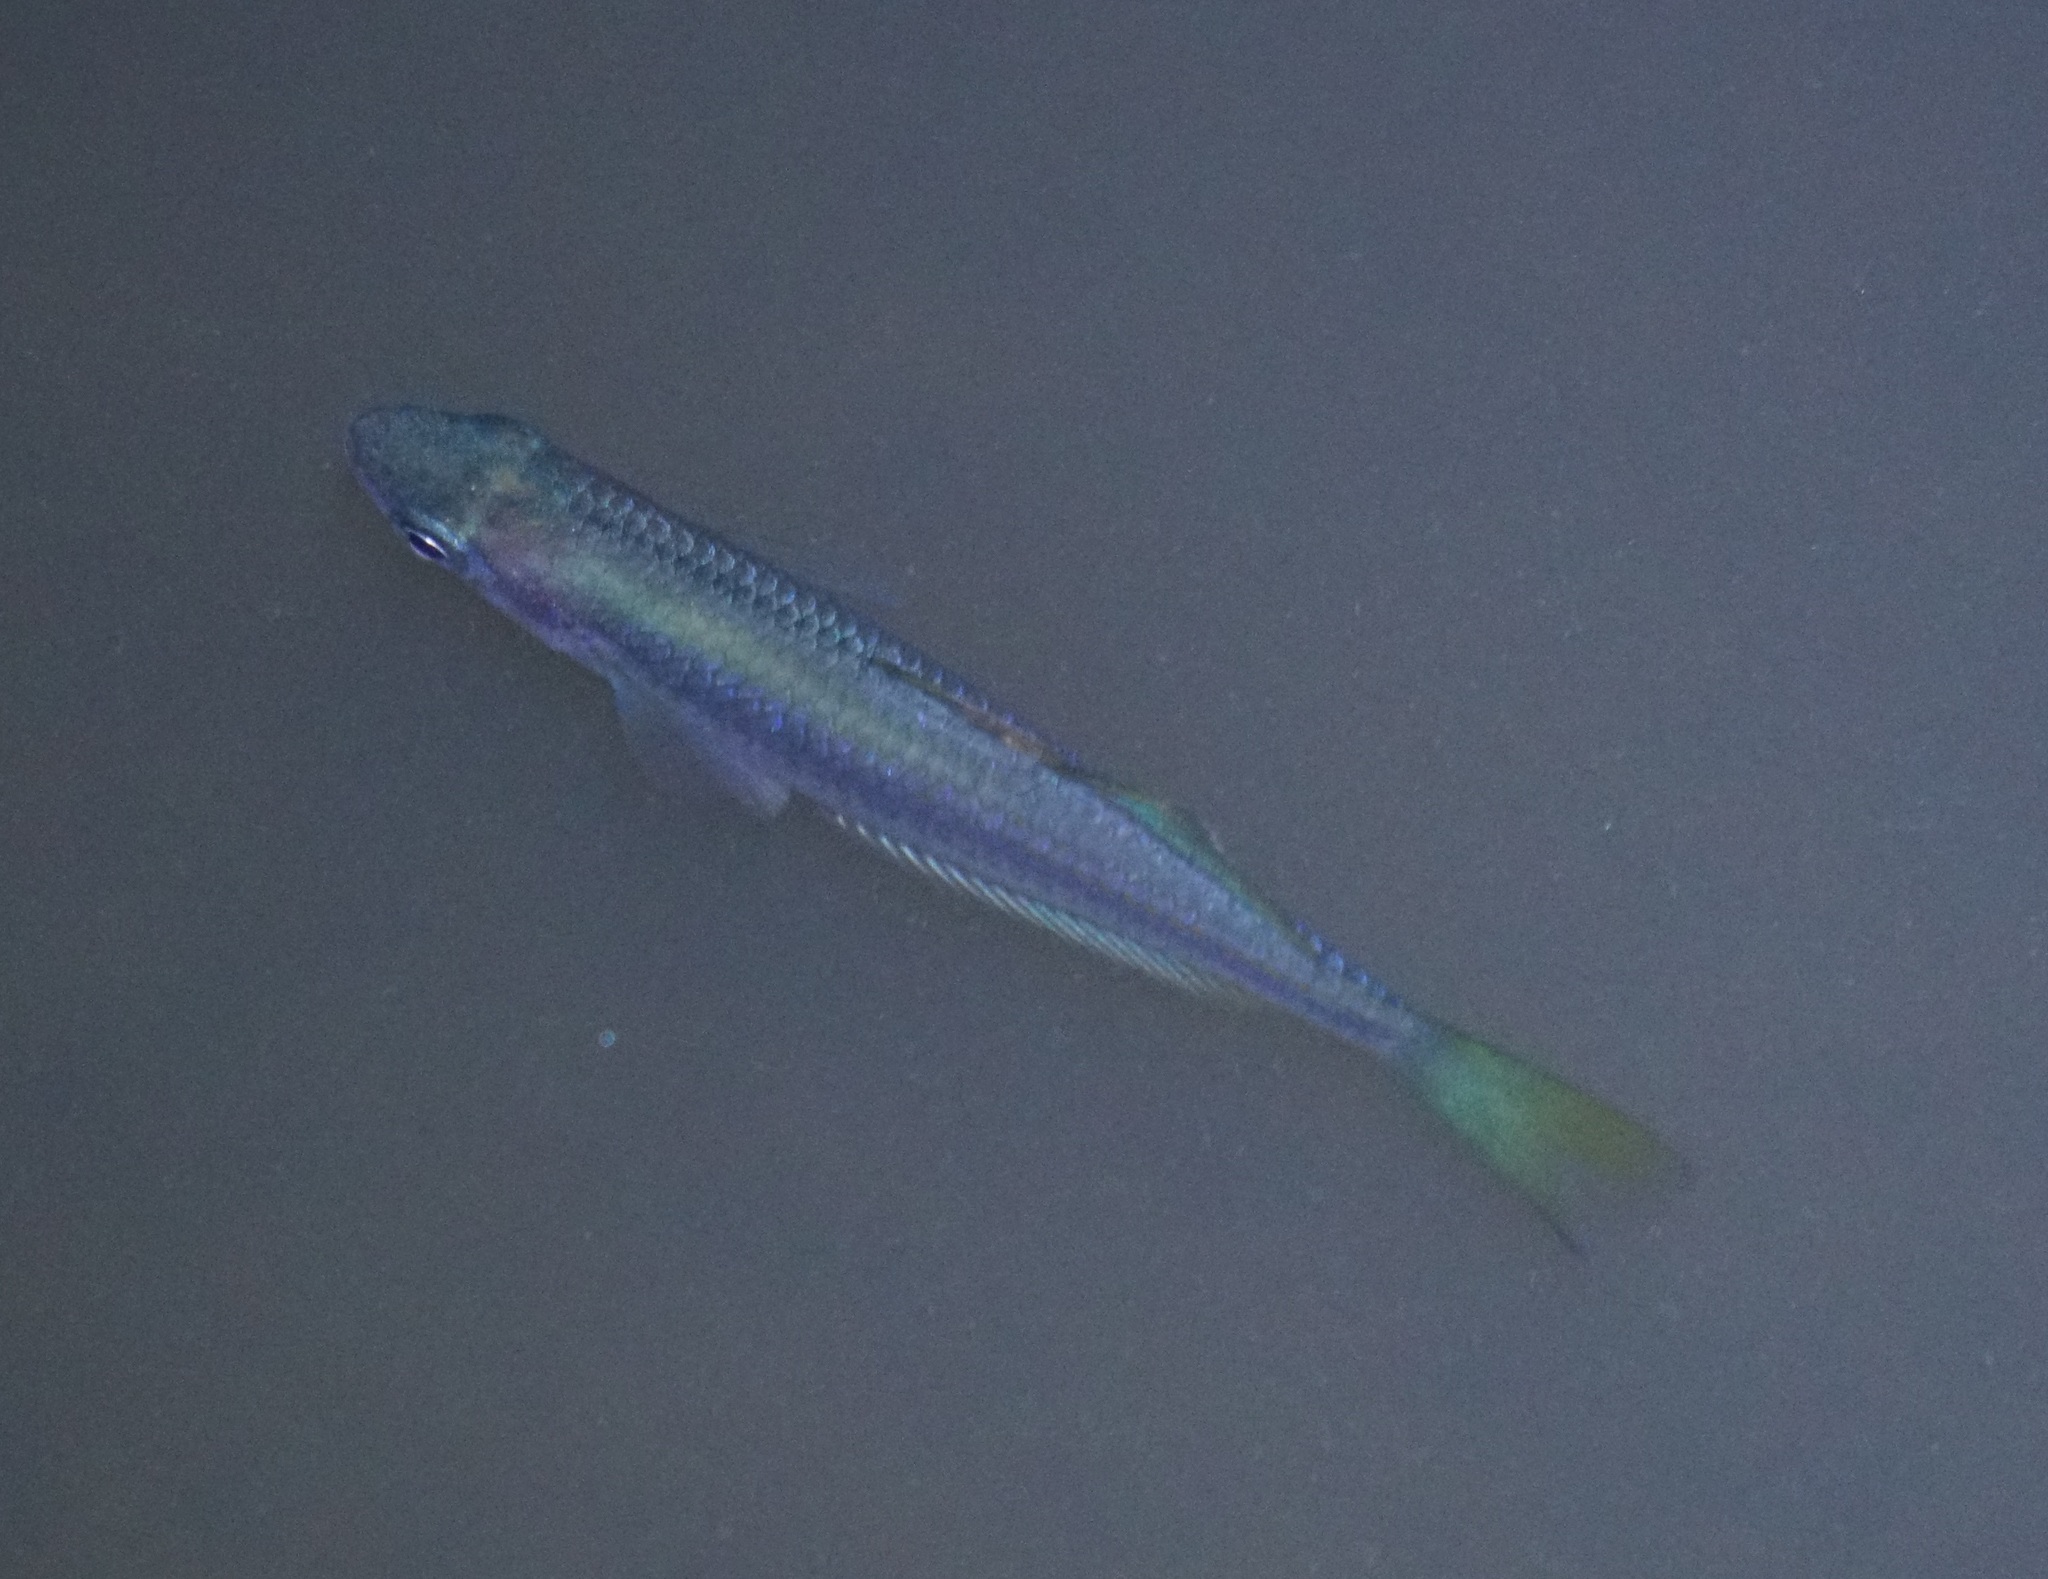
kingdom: Animalia
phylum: Chordata
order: Atheriniformes
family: Melanotaeniidae
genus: Melanotaenia
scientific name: Melanotaenia splendida
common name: Checkered rainbowfish
